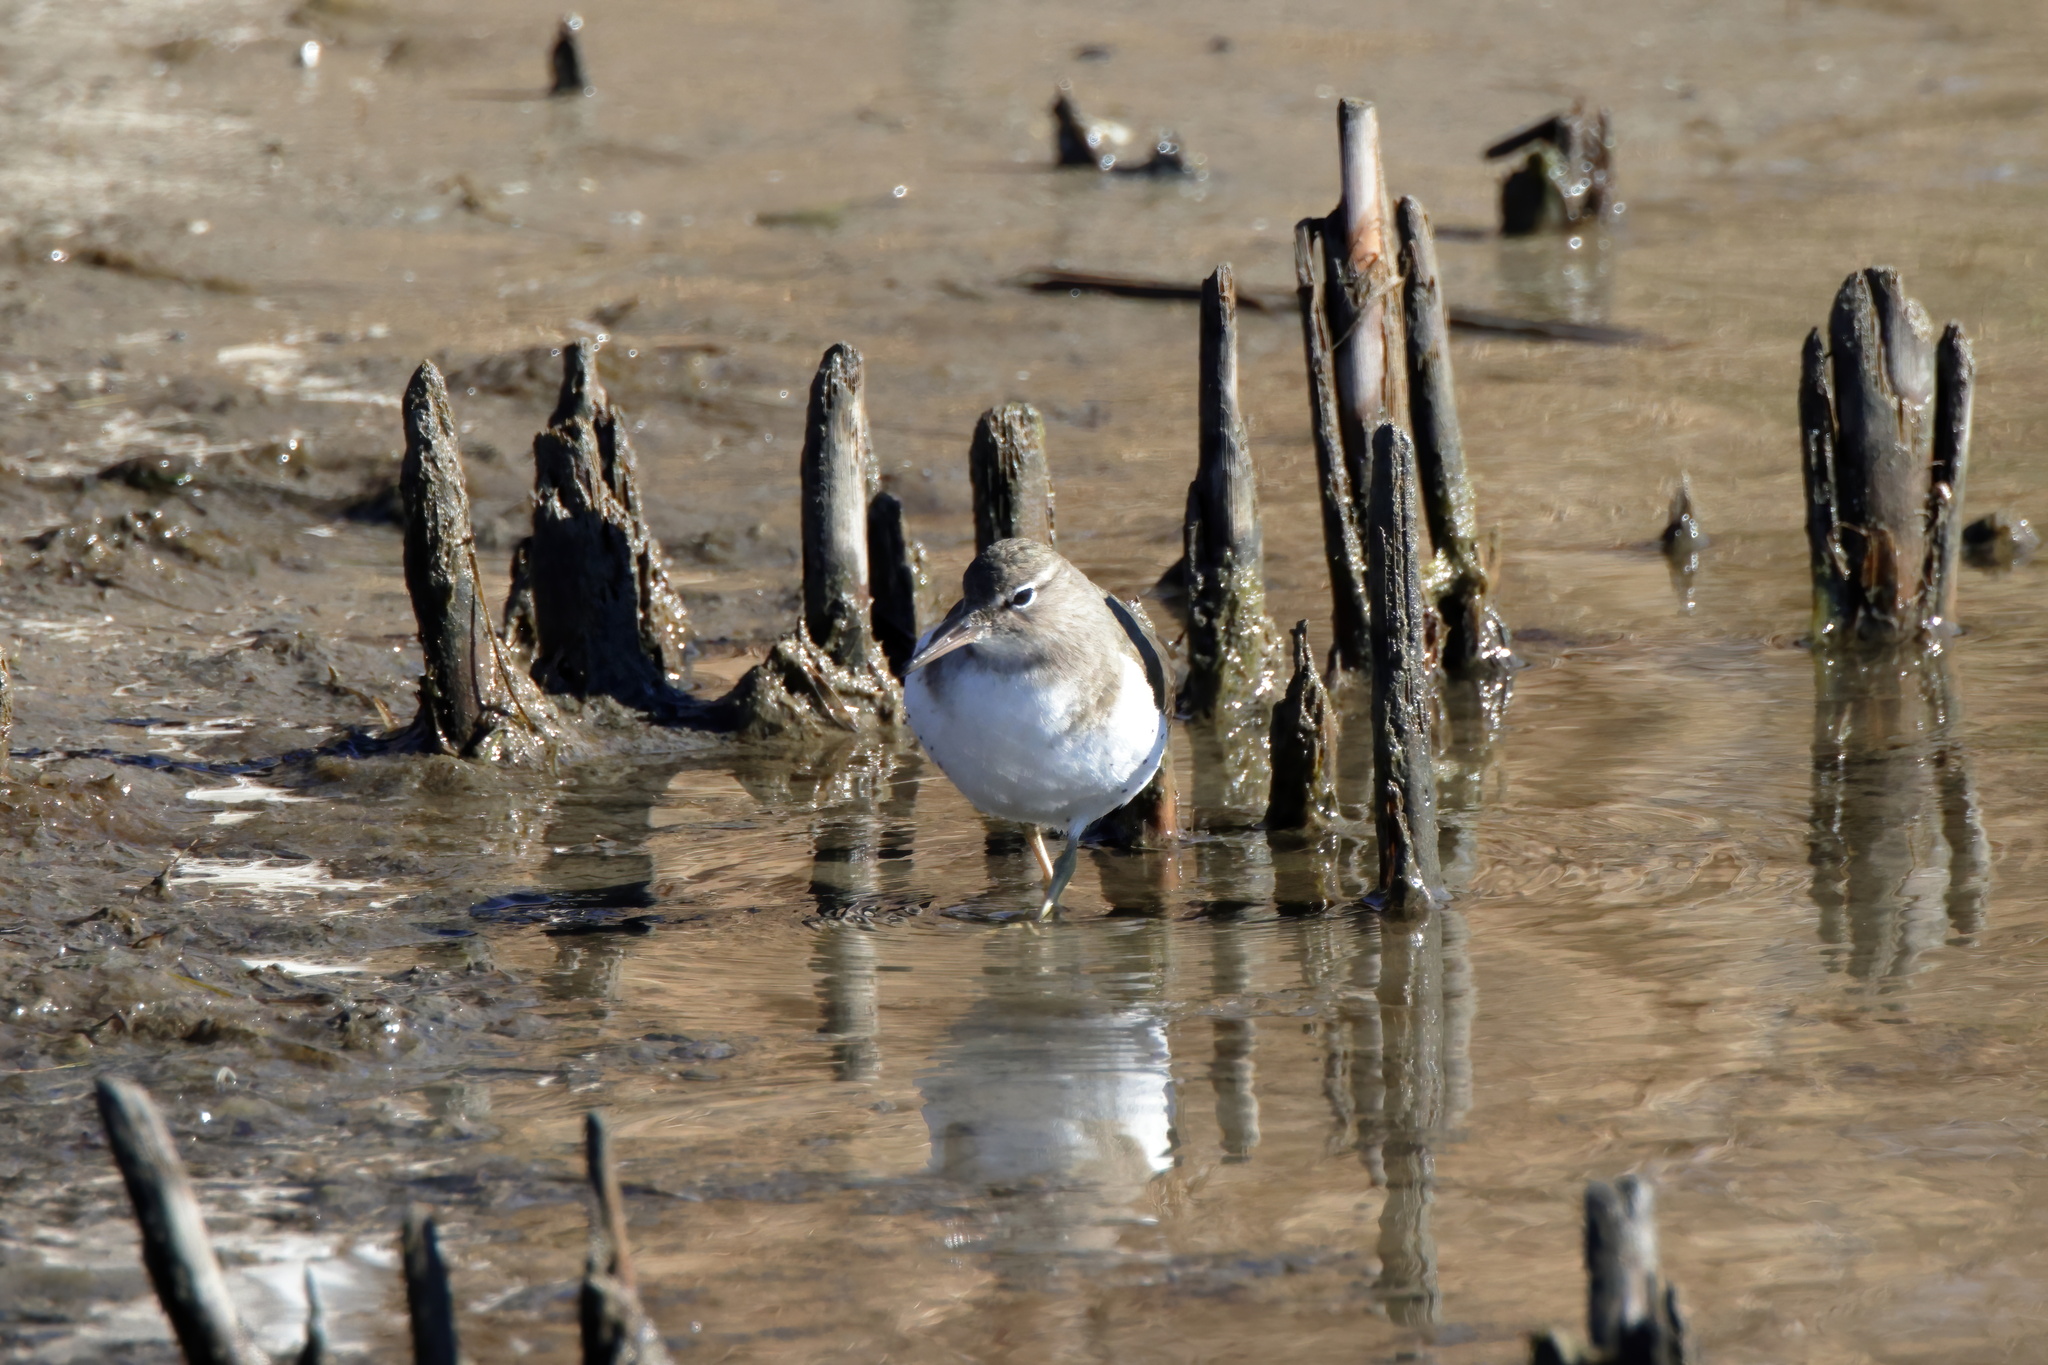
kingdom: Animalia
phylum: Chordata
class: Aves
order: Charadriiformes
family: Scolopacidae
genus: Actitis
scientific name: Actitis macularius
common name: Spotted sandpiper
